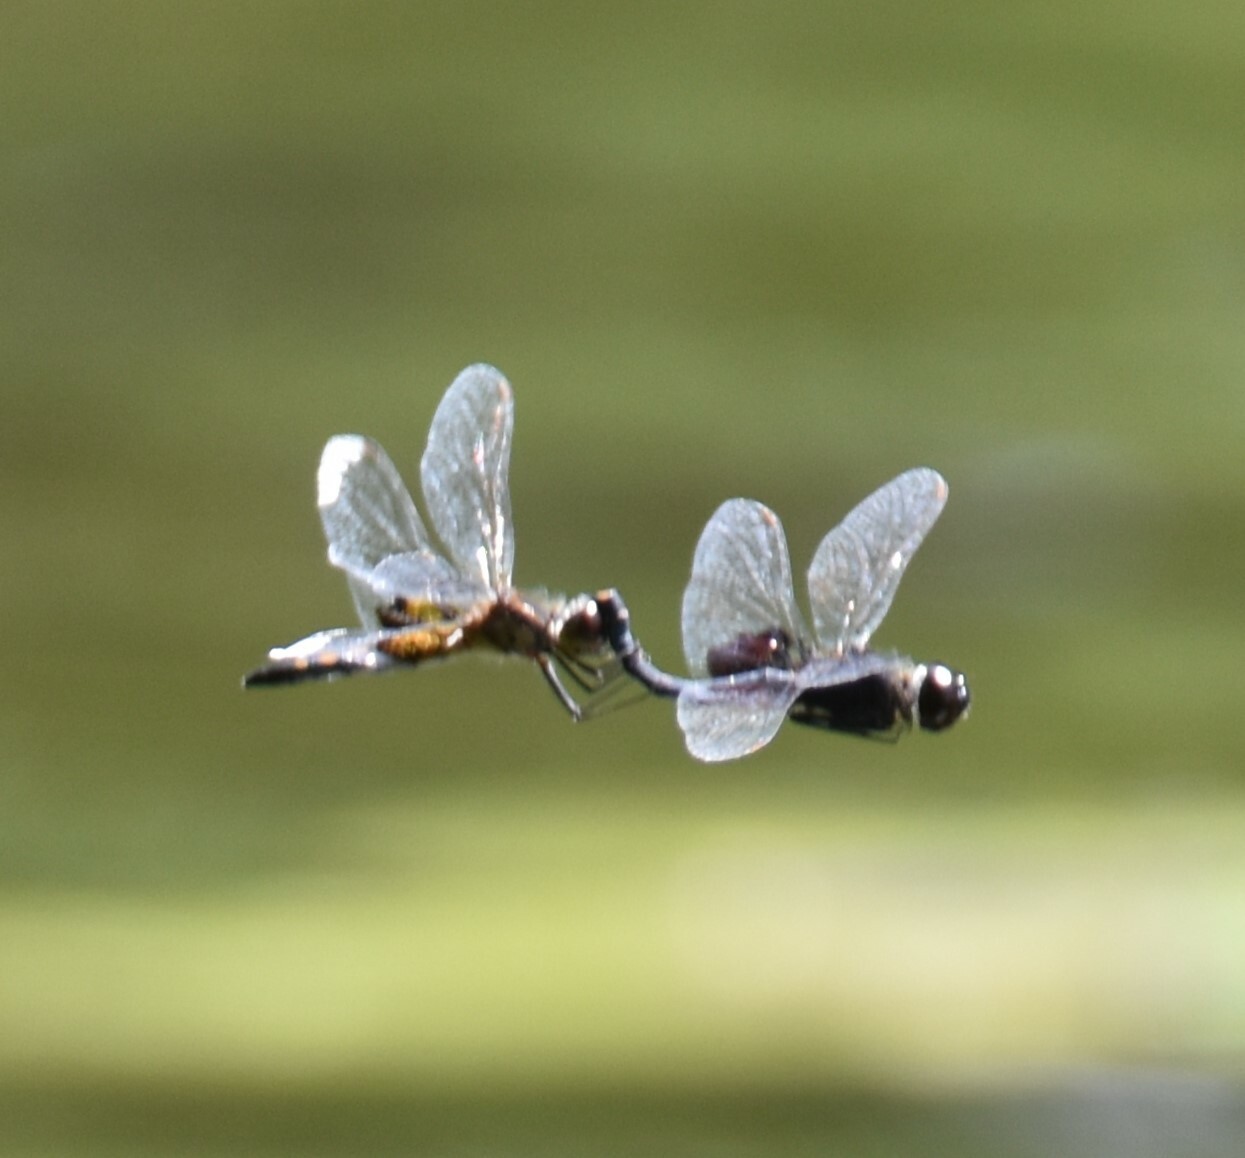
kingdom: Animalia
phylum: Arthropoda
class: Insecta
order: Odonata
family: Libellulidae
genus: Celithemis
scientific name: Celithemis martha
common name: Martha's pennant
